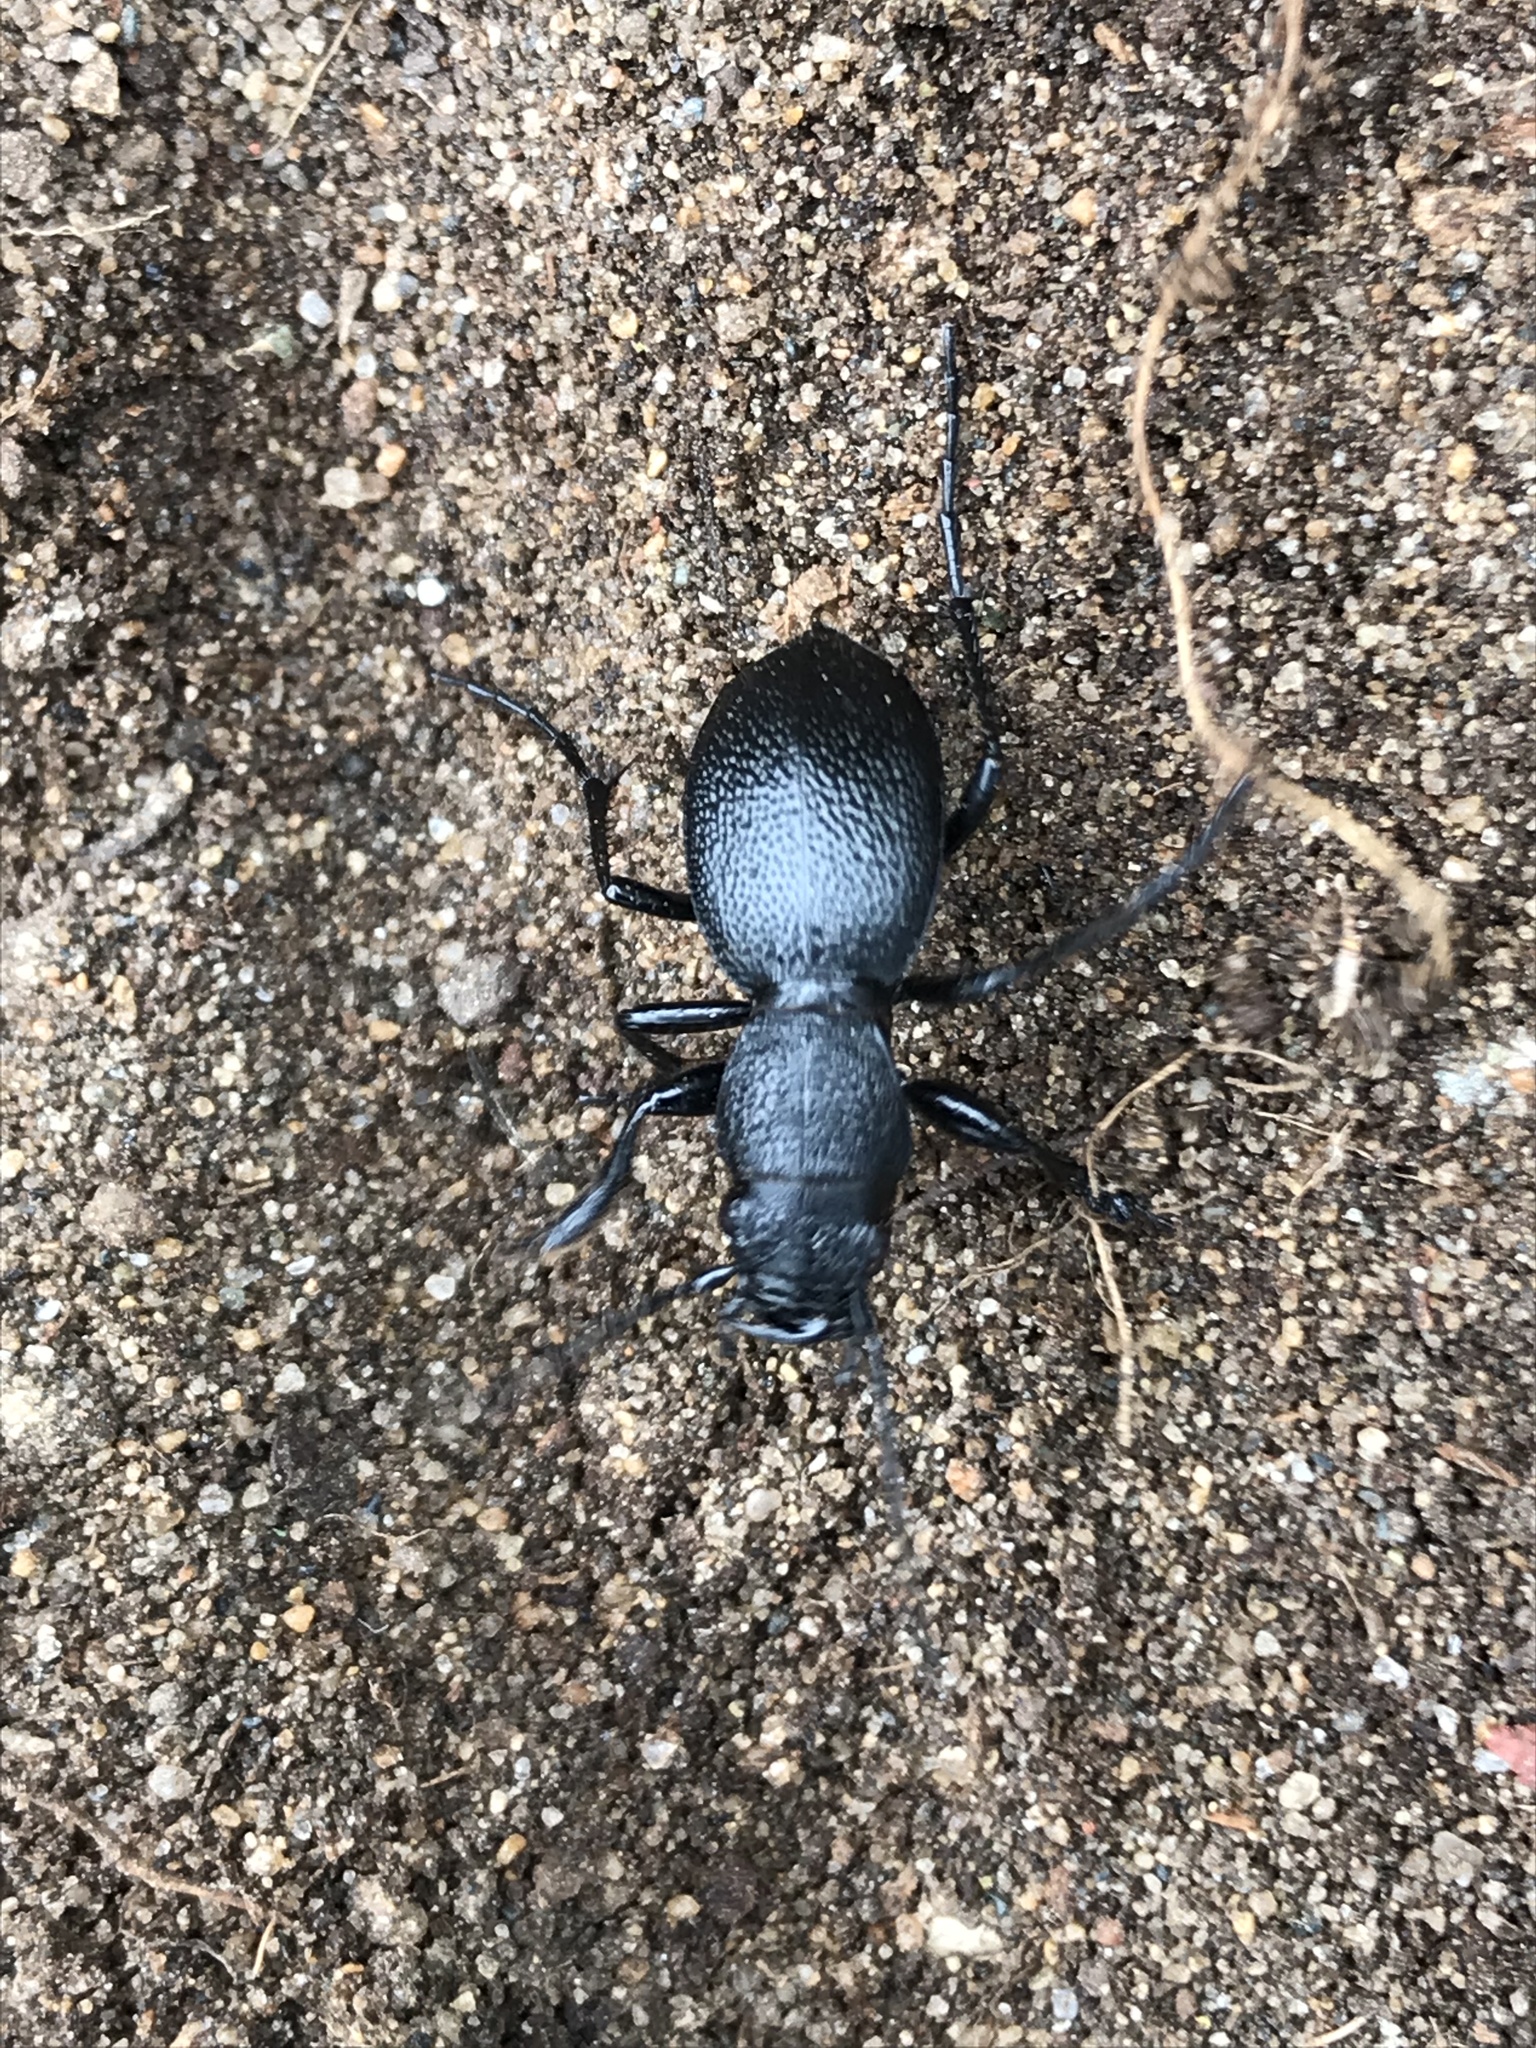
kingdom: Animalia
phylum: Arthropoda
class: Insecta
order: Coleoptera
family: Carabidae
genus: Omus
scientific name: Omus californicus
